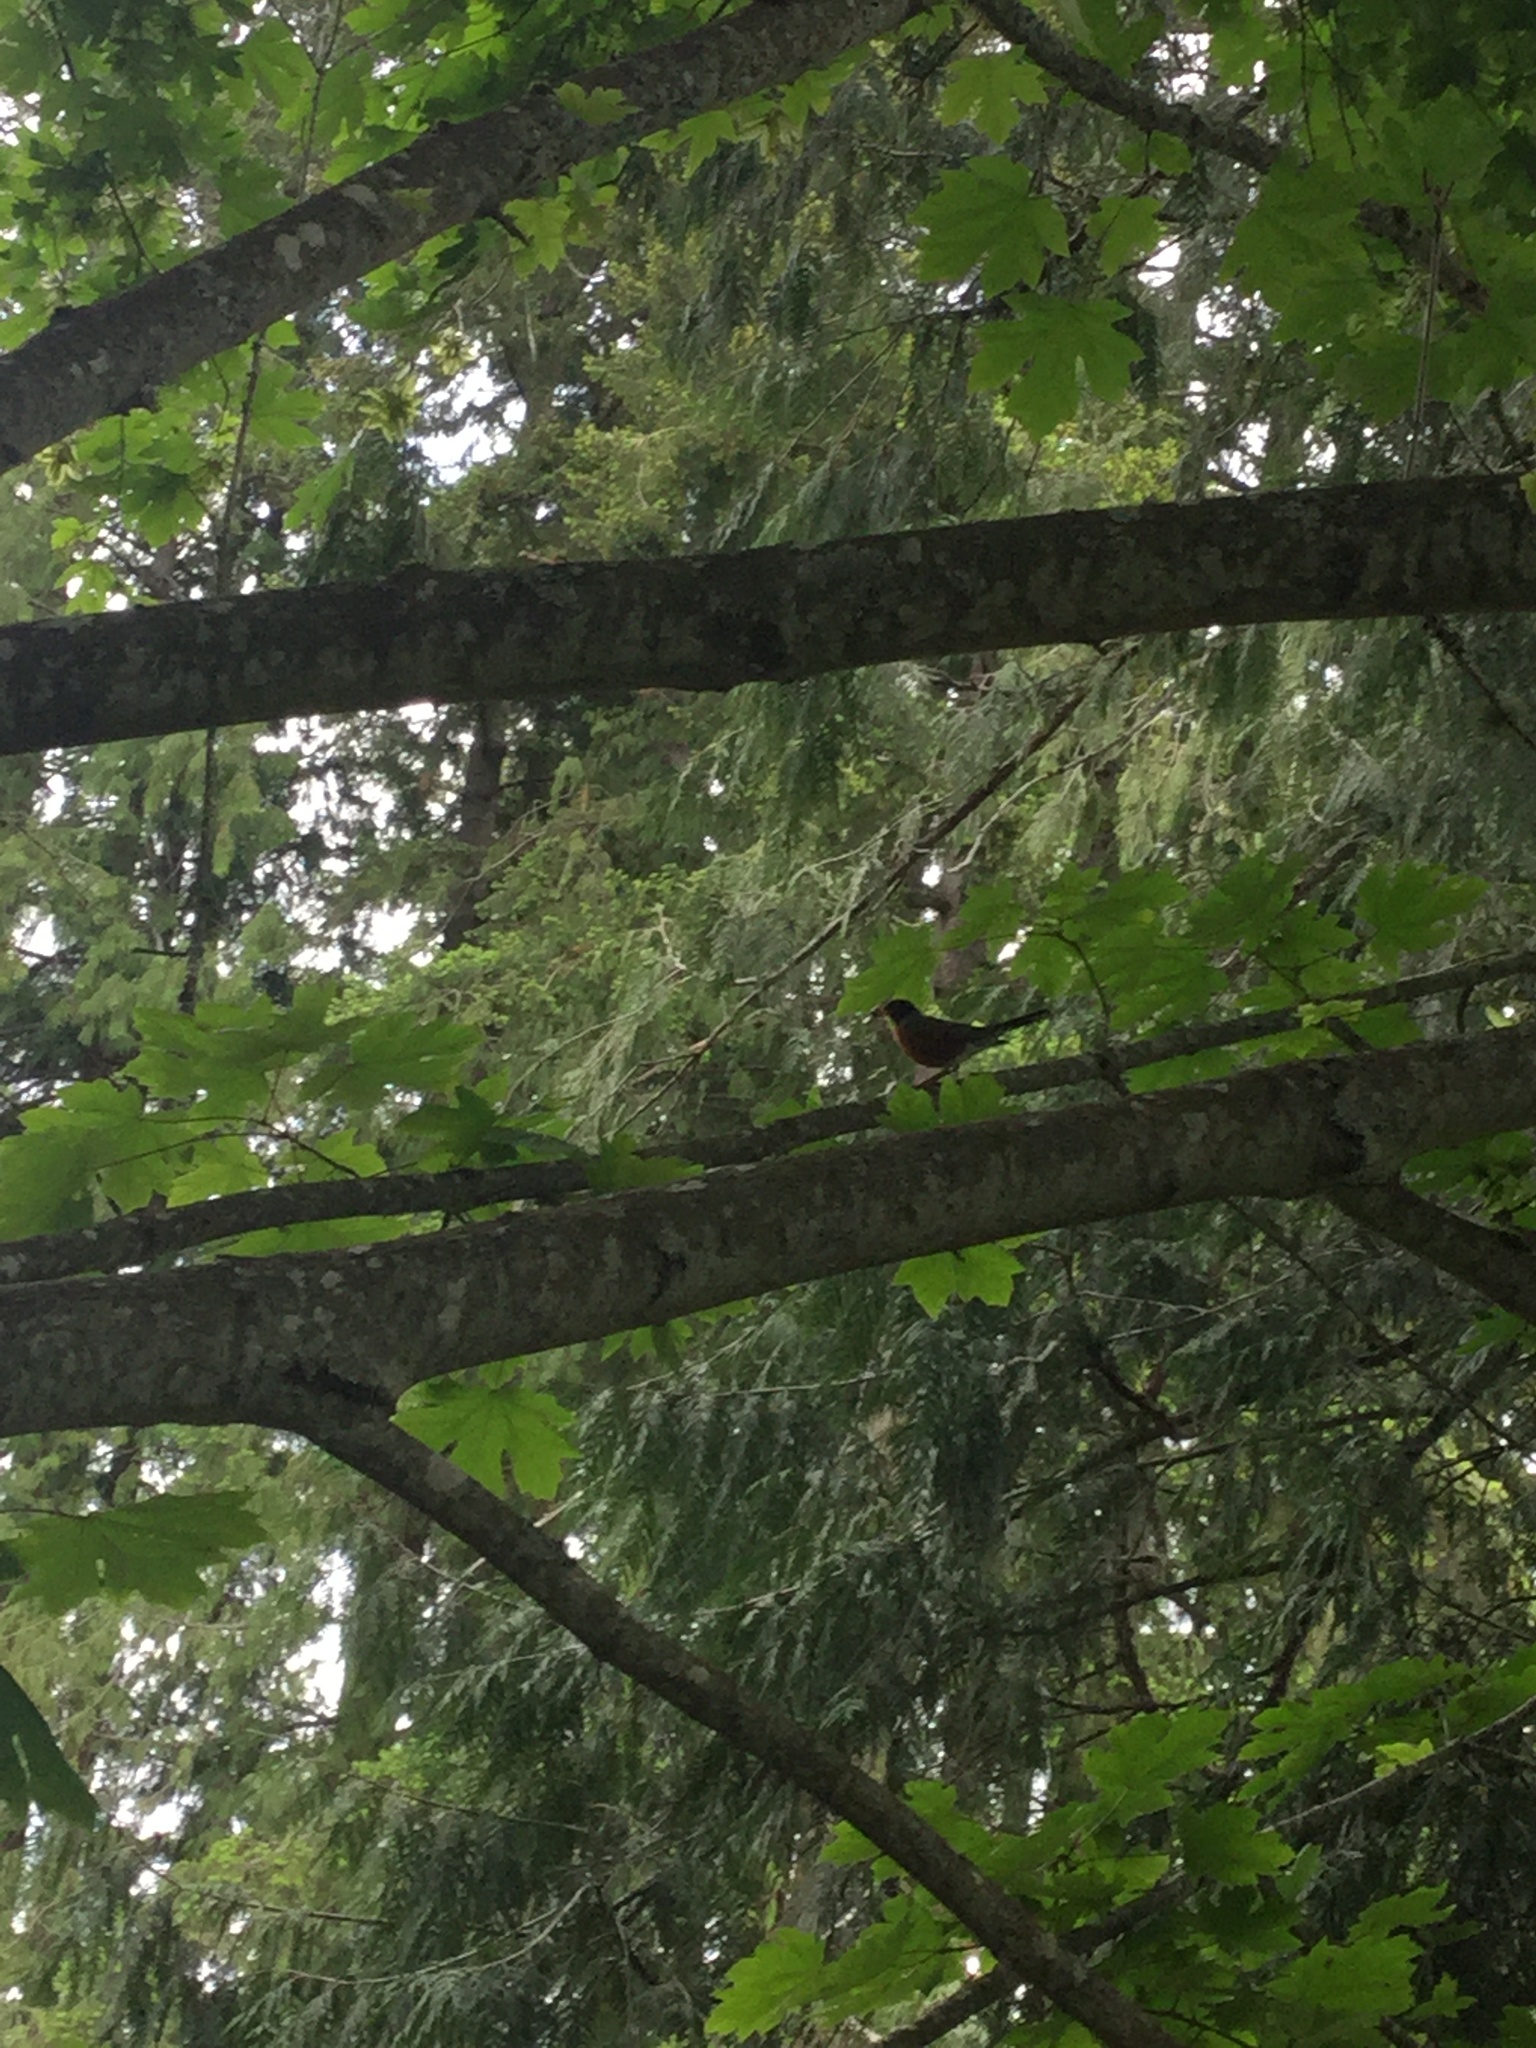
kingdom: Animalia
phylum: Chordata
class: Aves
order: Passeriformes
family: Turdidae
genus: Turdus
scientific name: Turdus migratorius
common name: American robin
